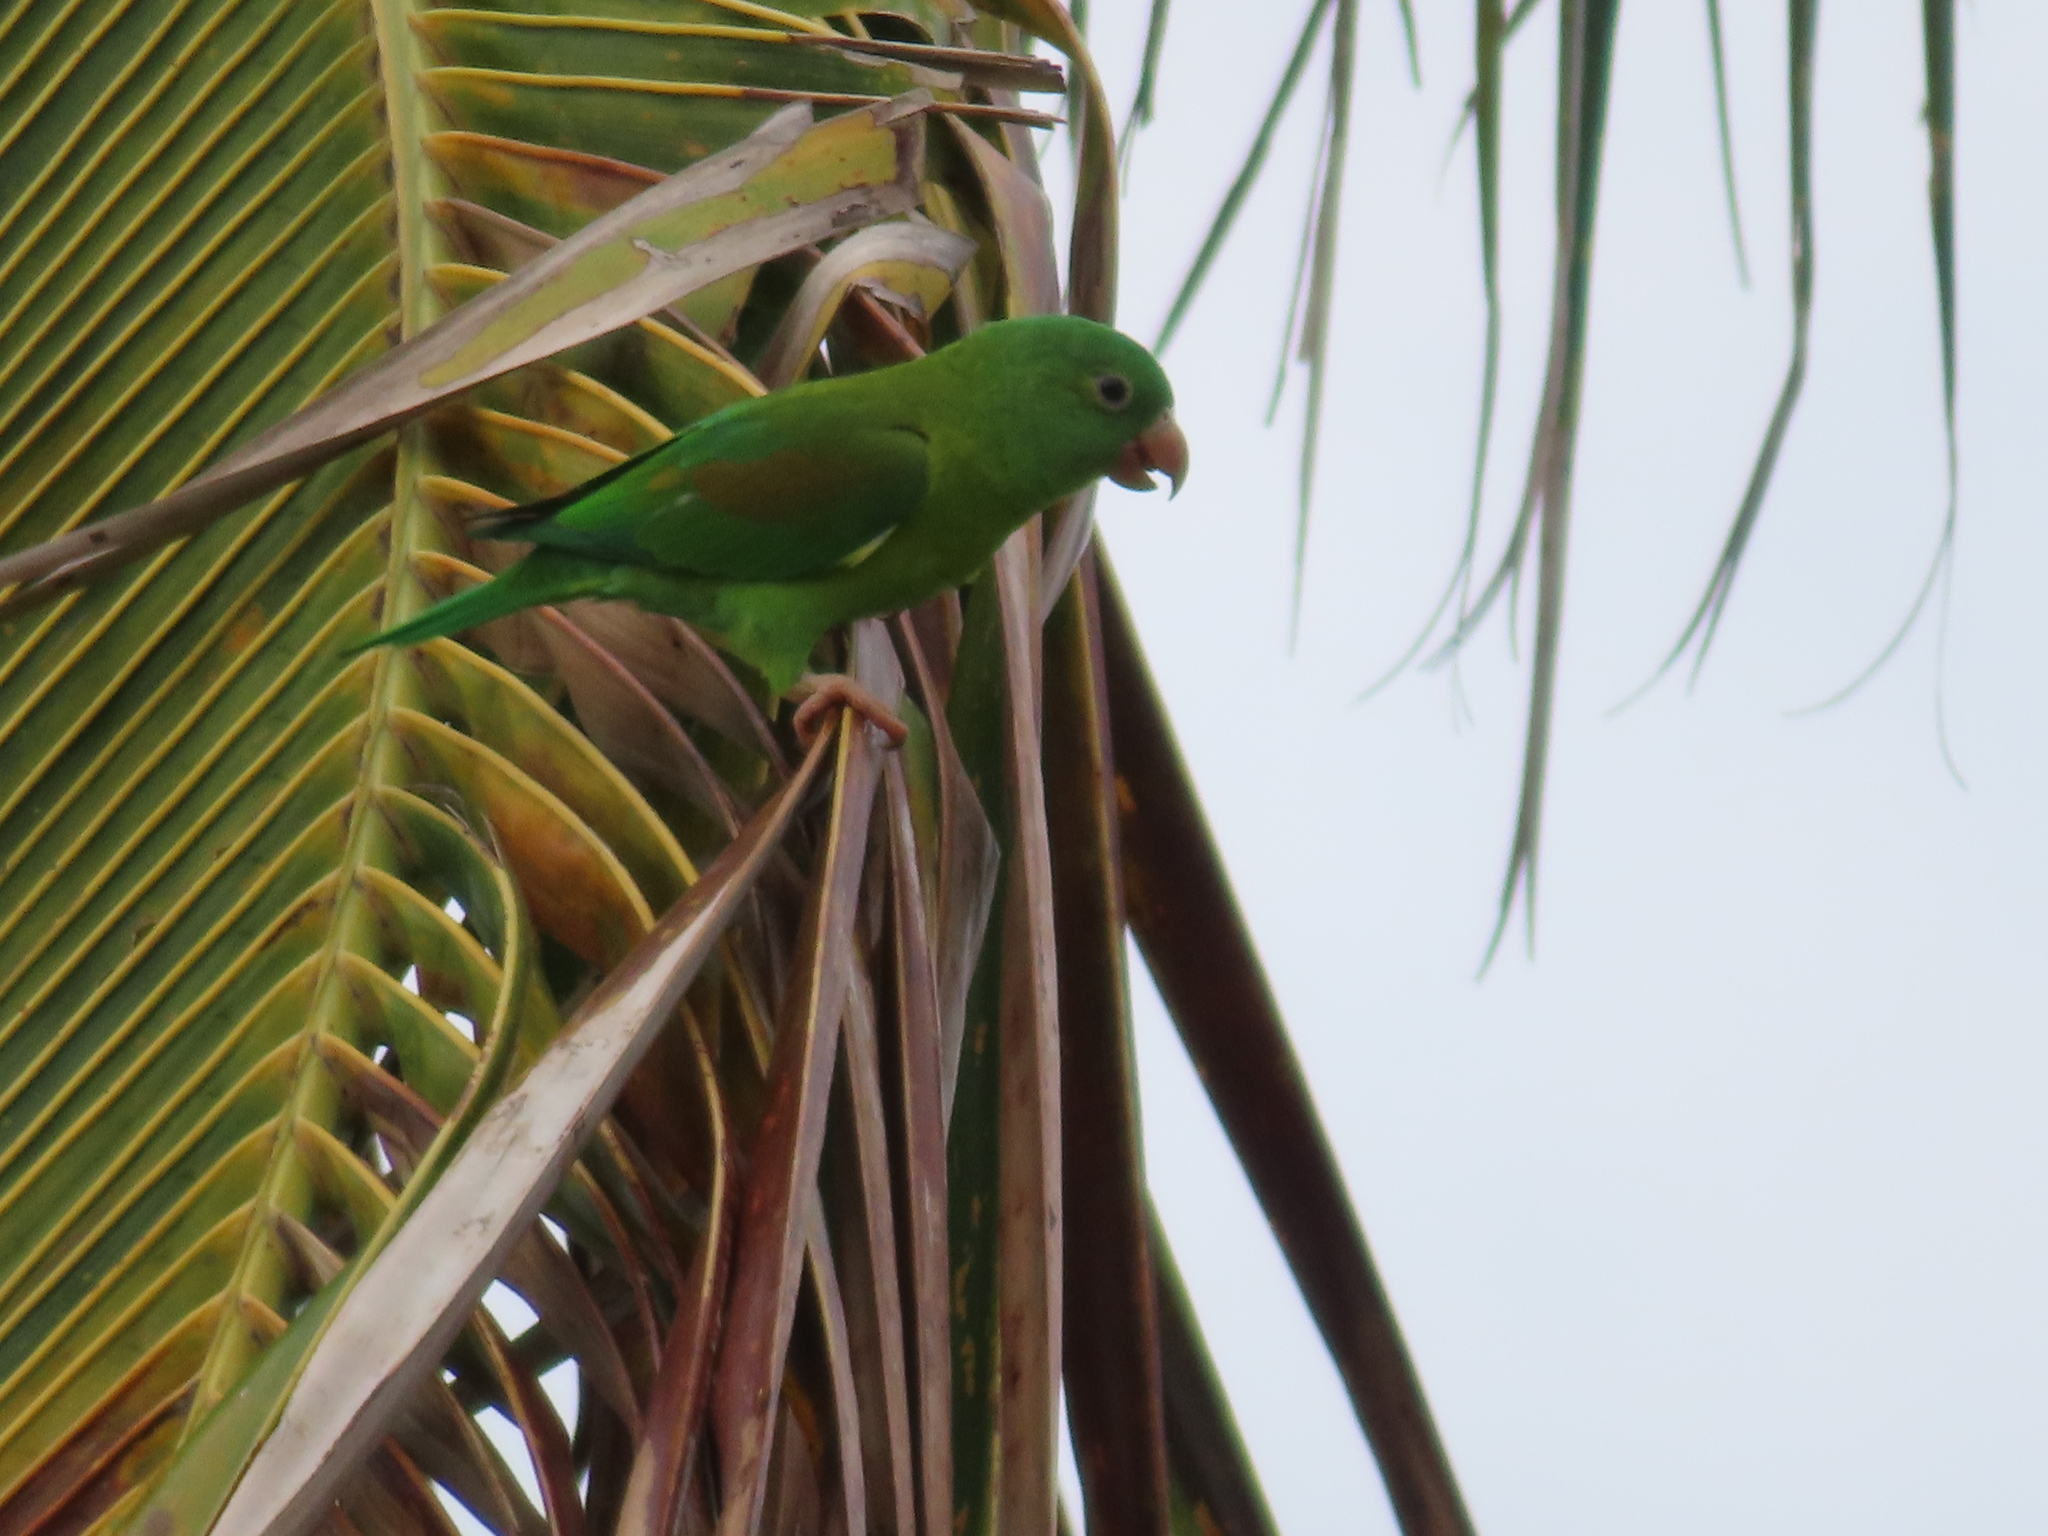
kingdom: Animalia
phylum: Chordata
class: Aves
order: Psittaciformes
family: Psittacidae
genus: Brotogeris
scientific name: Brotogeris jugularis
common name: Orange-chinned parakeet
